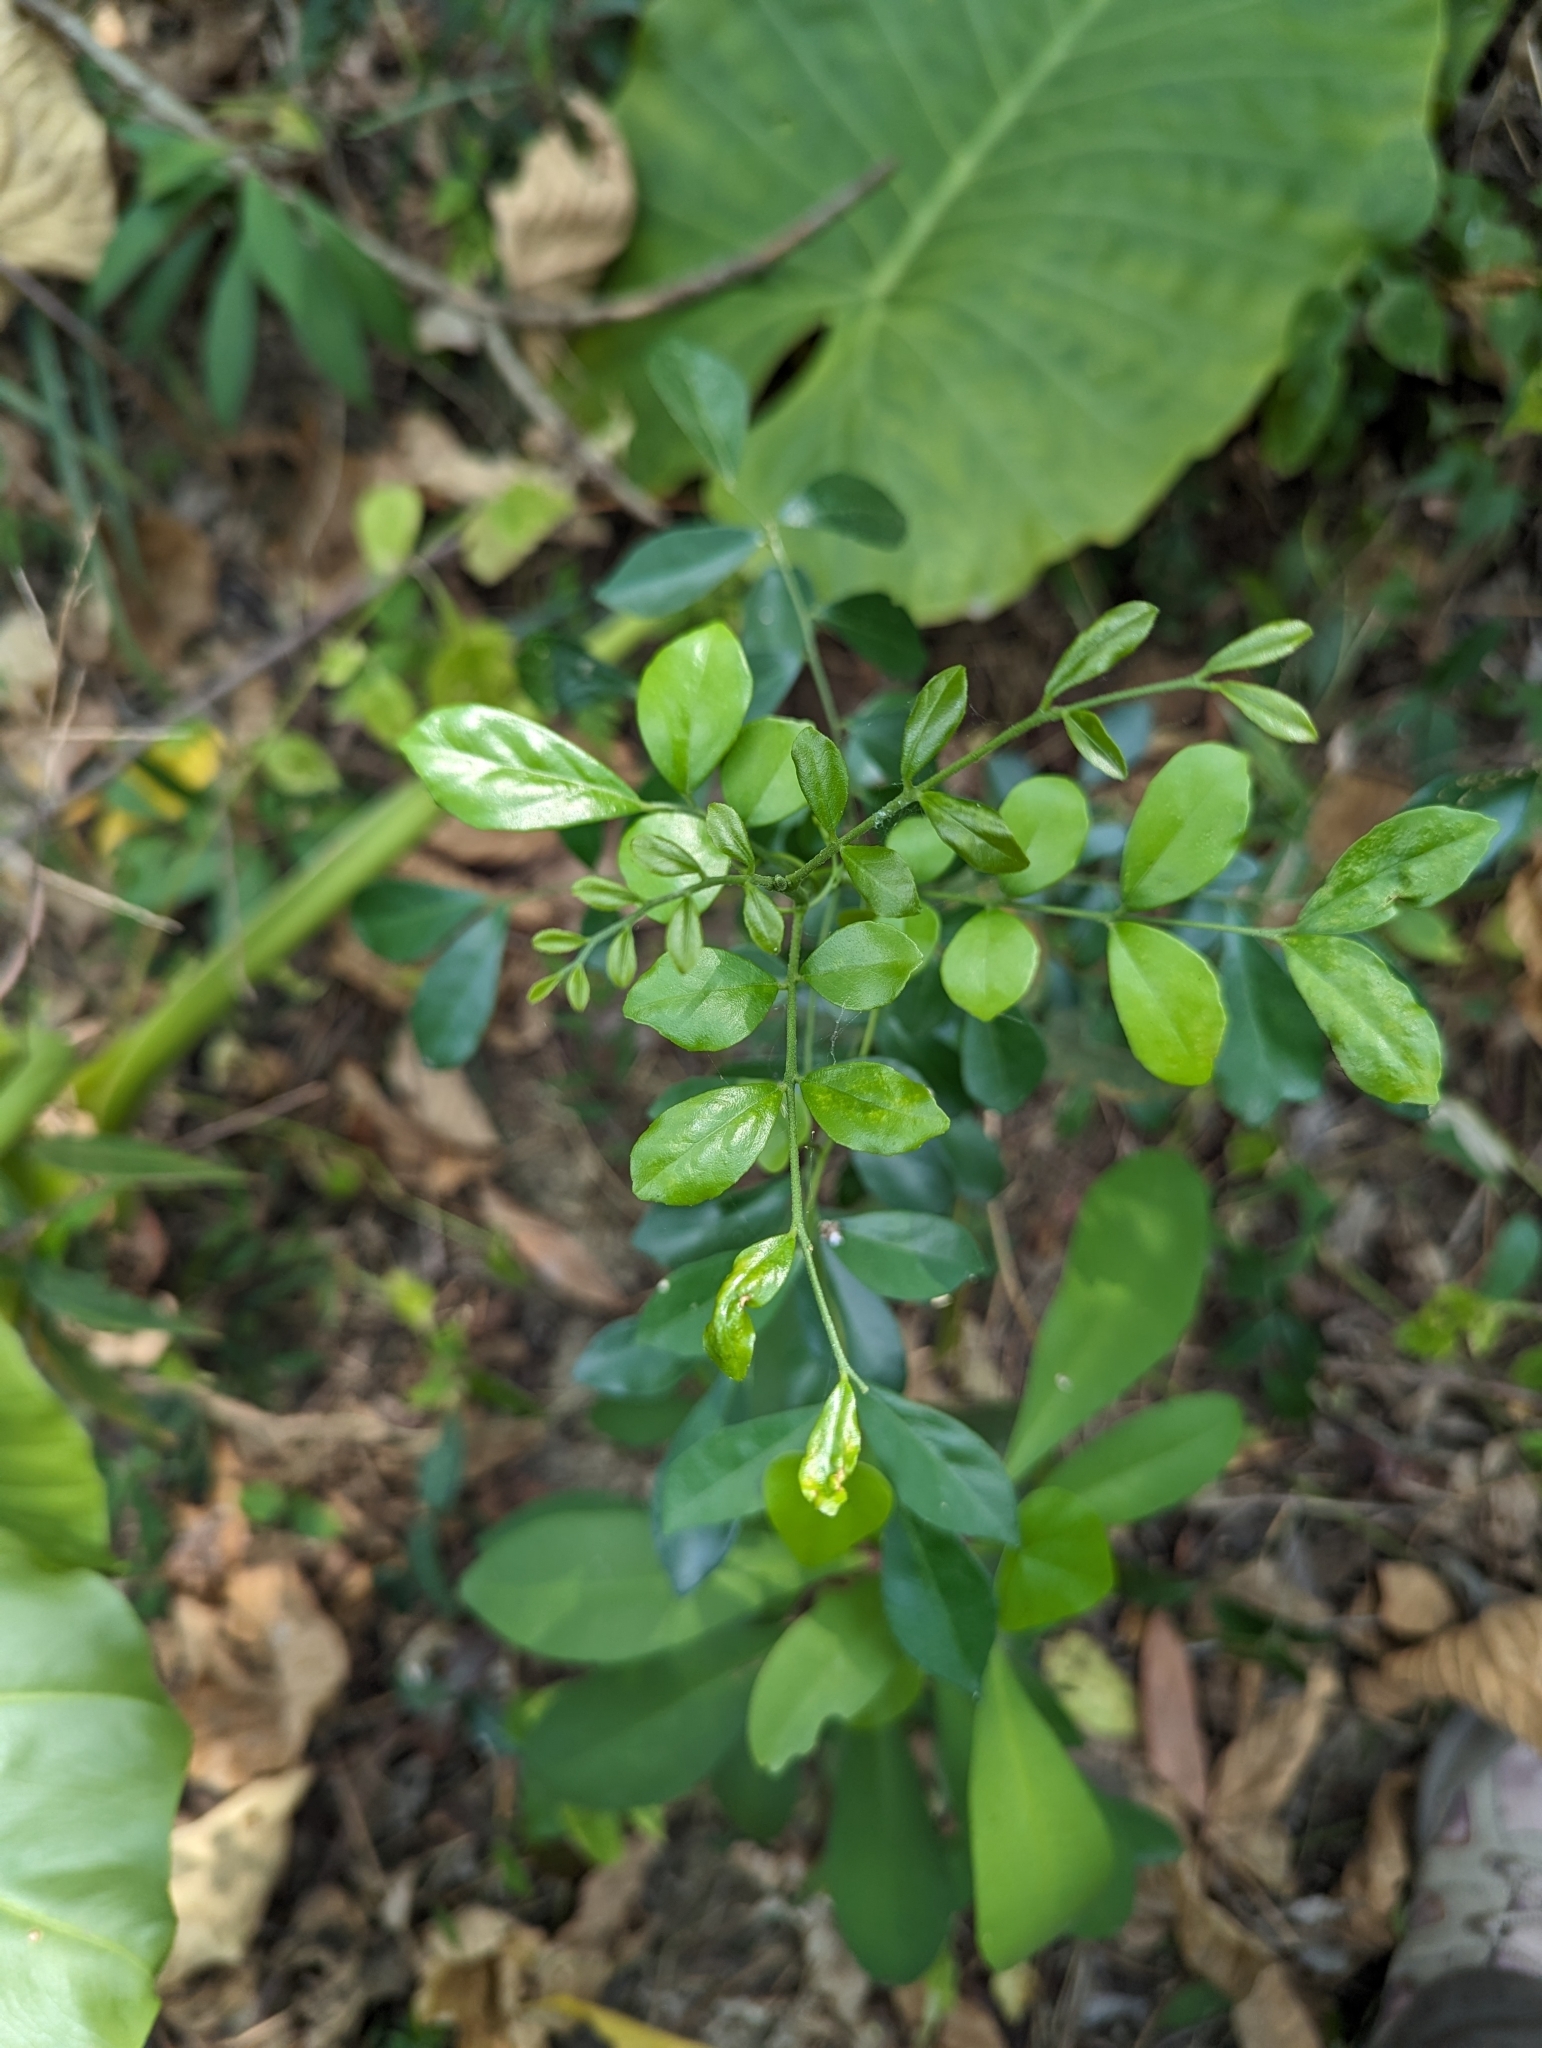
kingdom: Plantae
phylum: Tracheophyta
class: Magnoliopsida
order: Sapindales
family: Rutaceae
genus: Murraya
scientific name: Murraya paniculata
